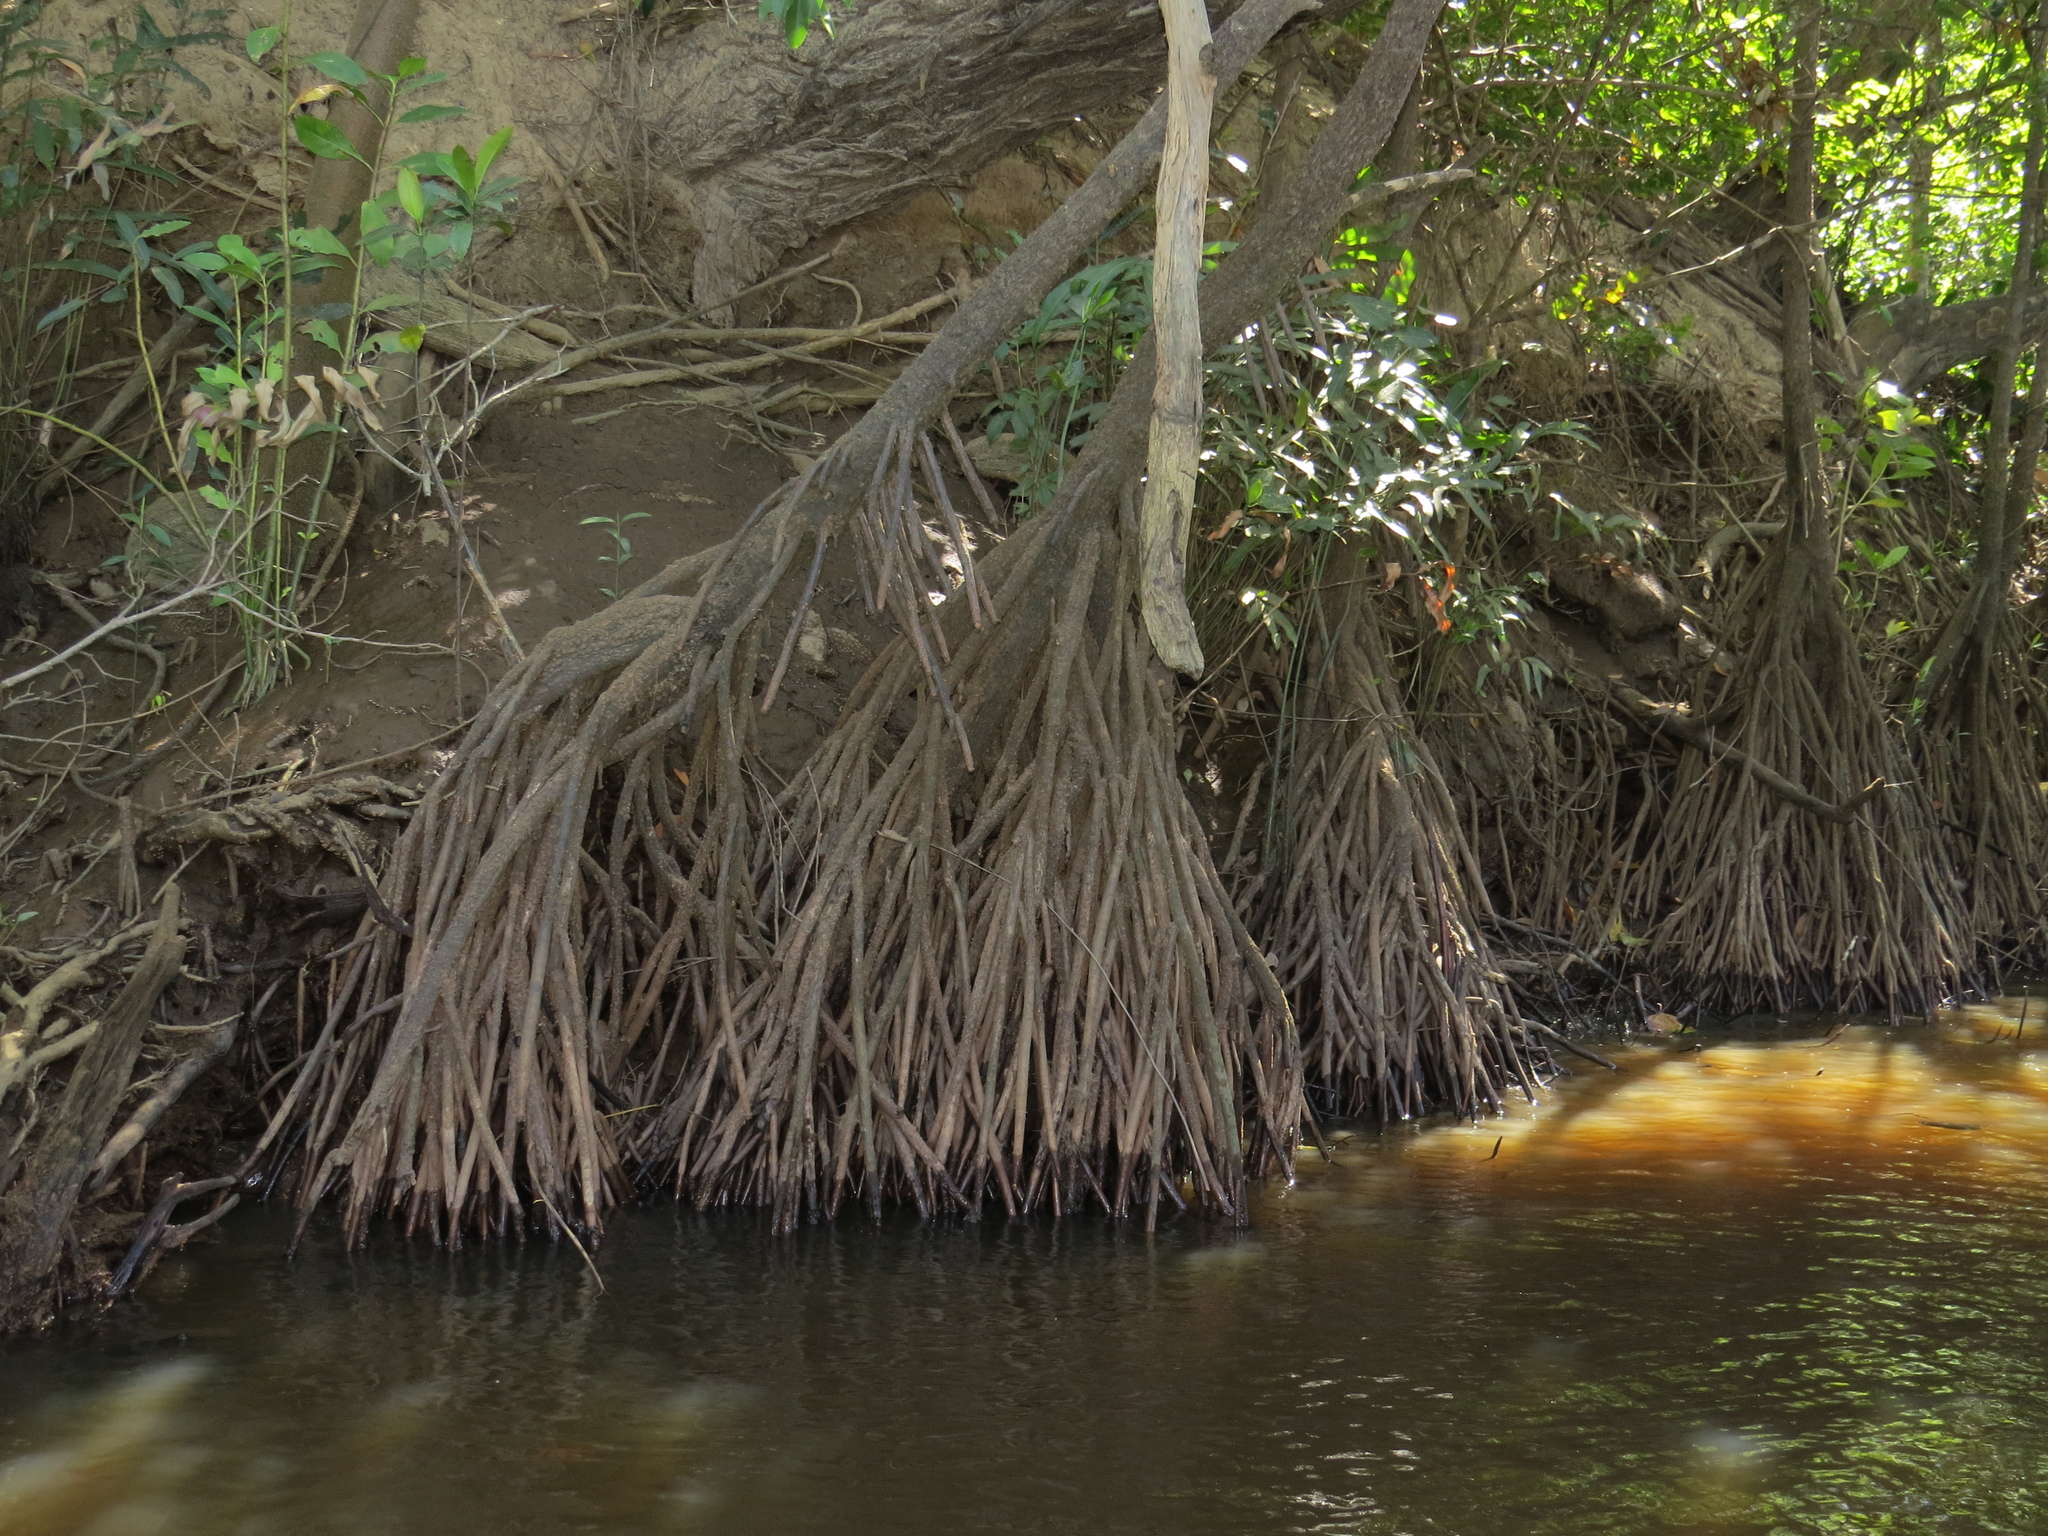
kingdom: Plantae
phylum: Tracheophyta
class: Magnoliopsida
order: Malpighiales
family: Rhizophoraceae
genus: Bruguiera
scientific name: Bruguiera sexangula
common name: Oriental mangrove
